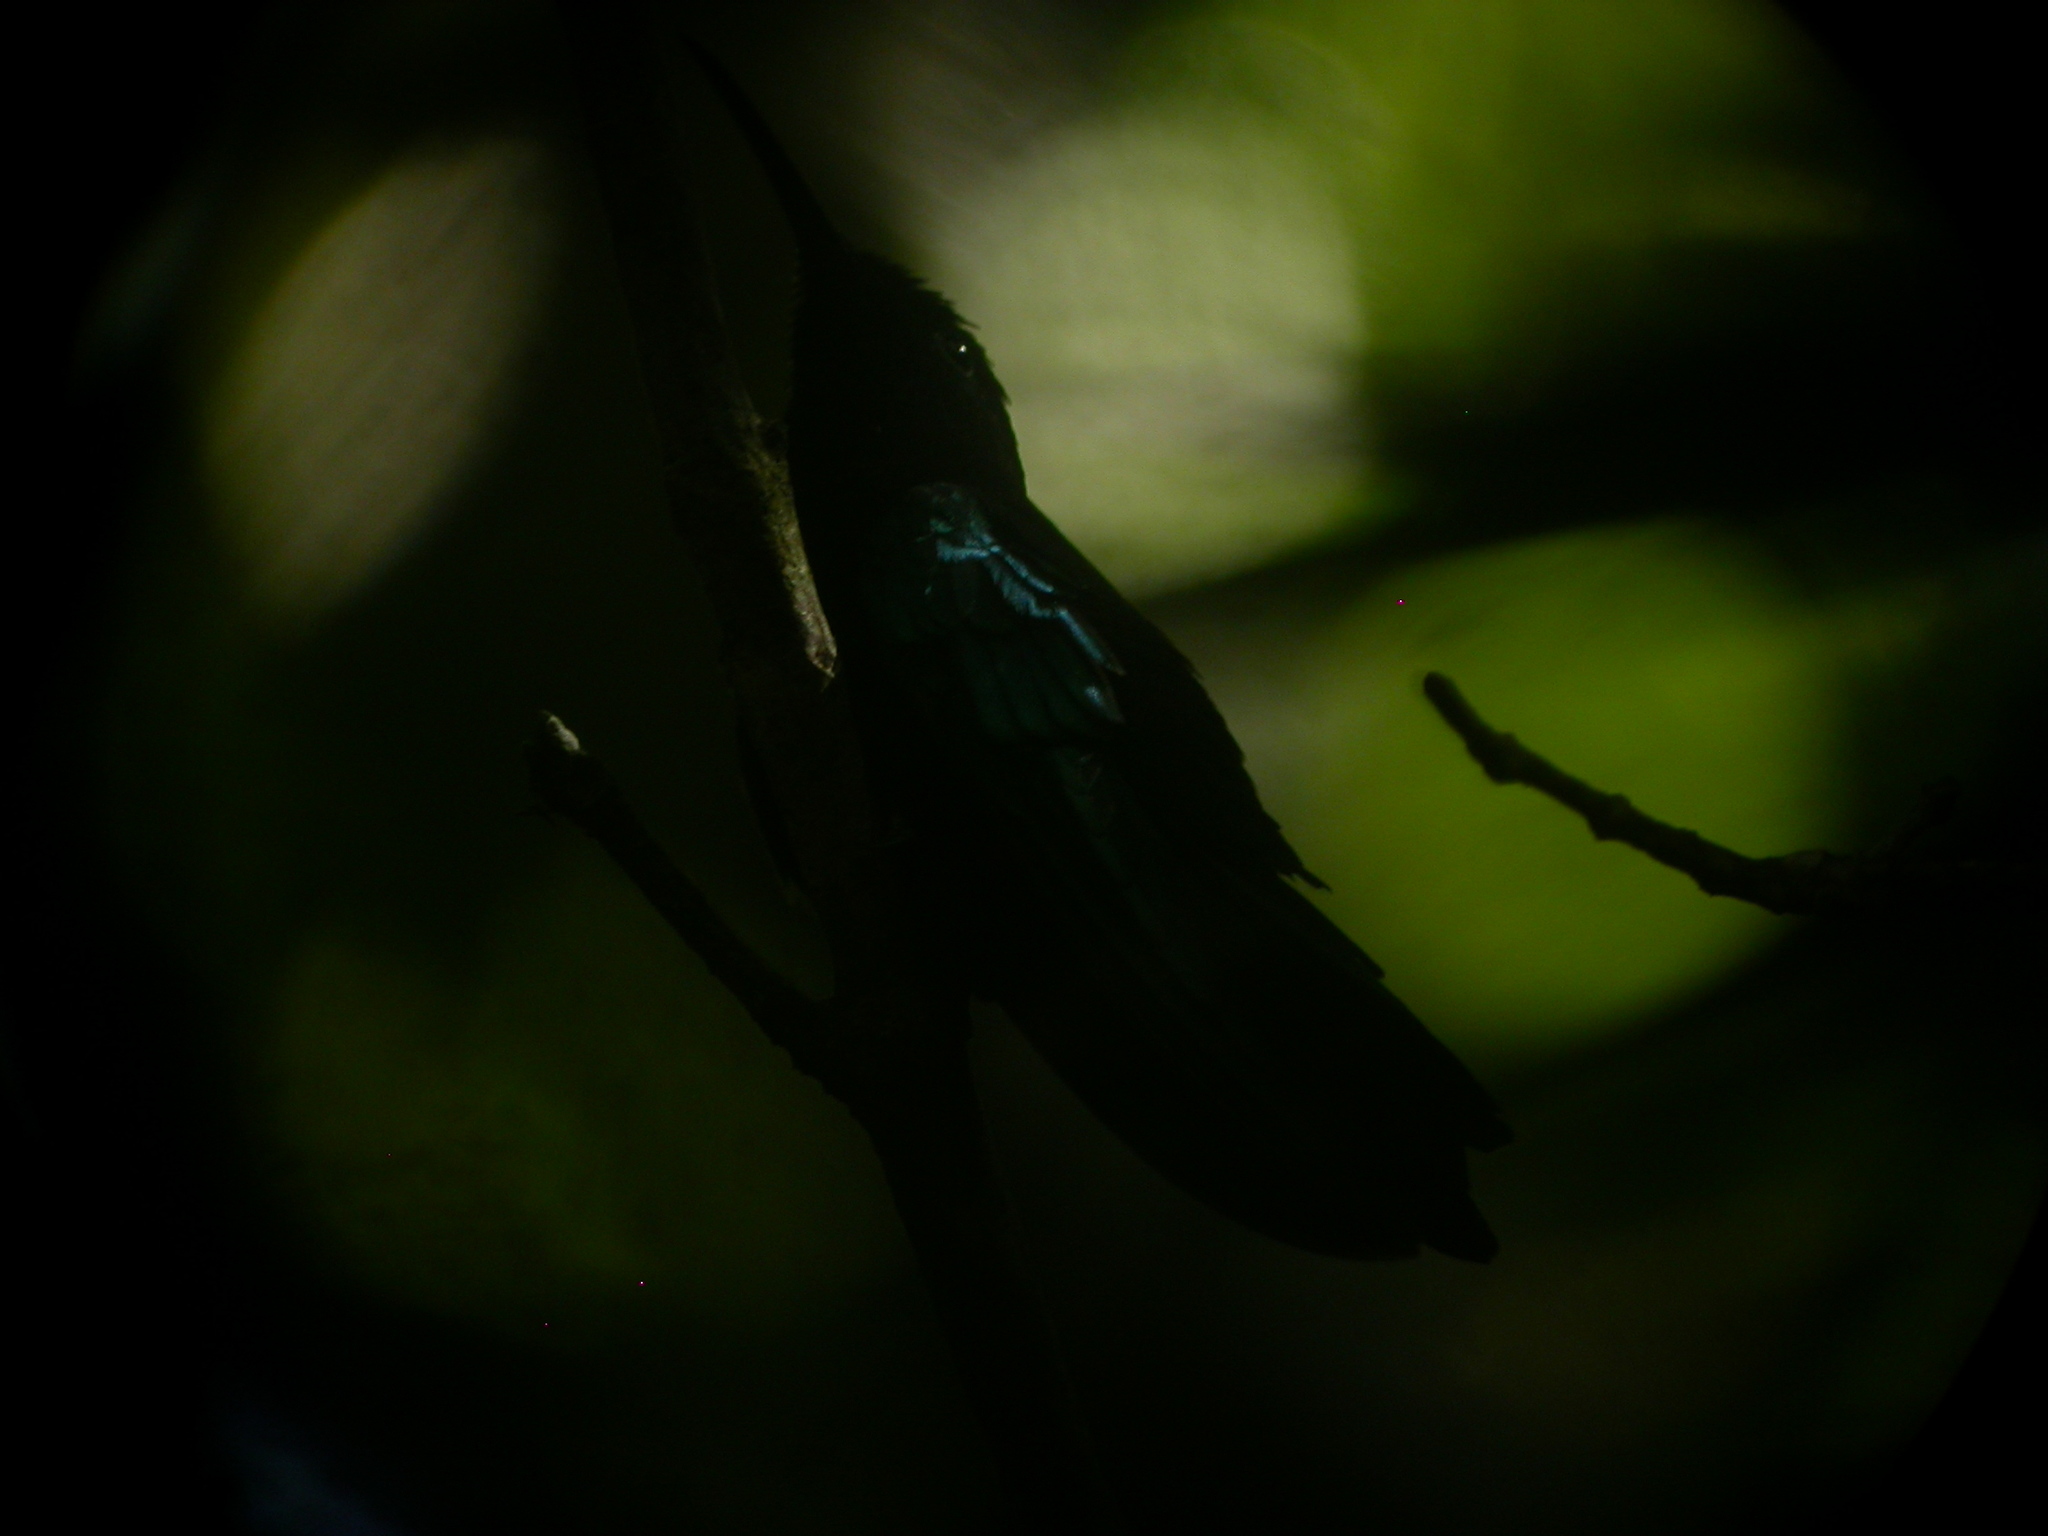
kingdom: Animalia
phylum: Chordata
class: Aves
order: Apodiformes
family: Trochilidae
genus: Eulampis
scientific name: Eulampis jugularis
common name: Purple-throated carib
